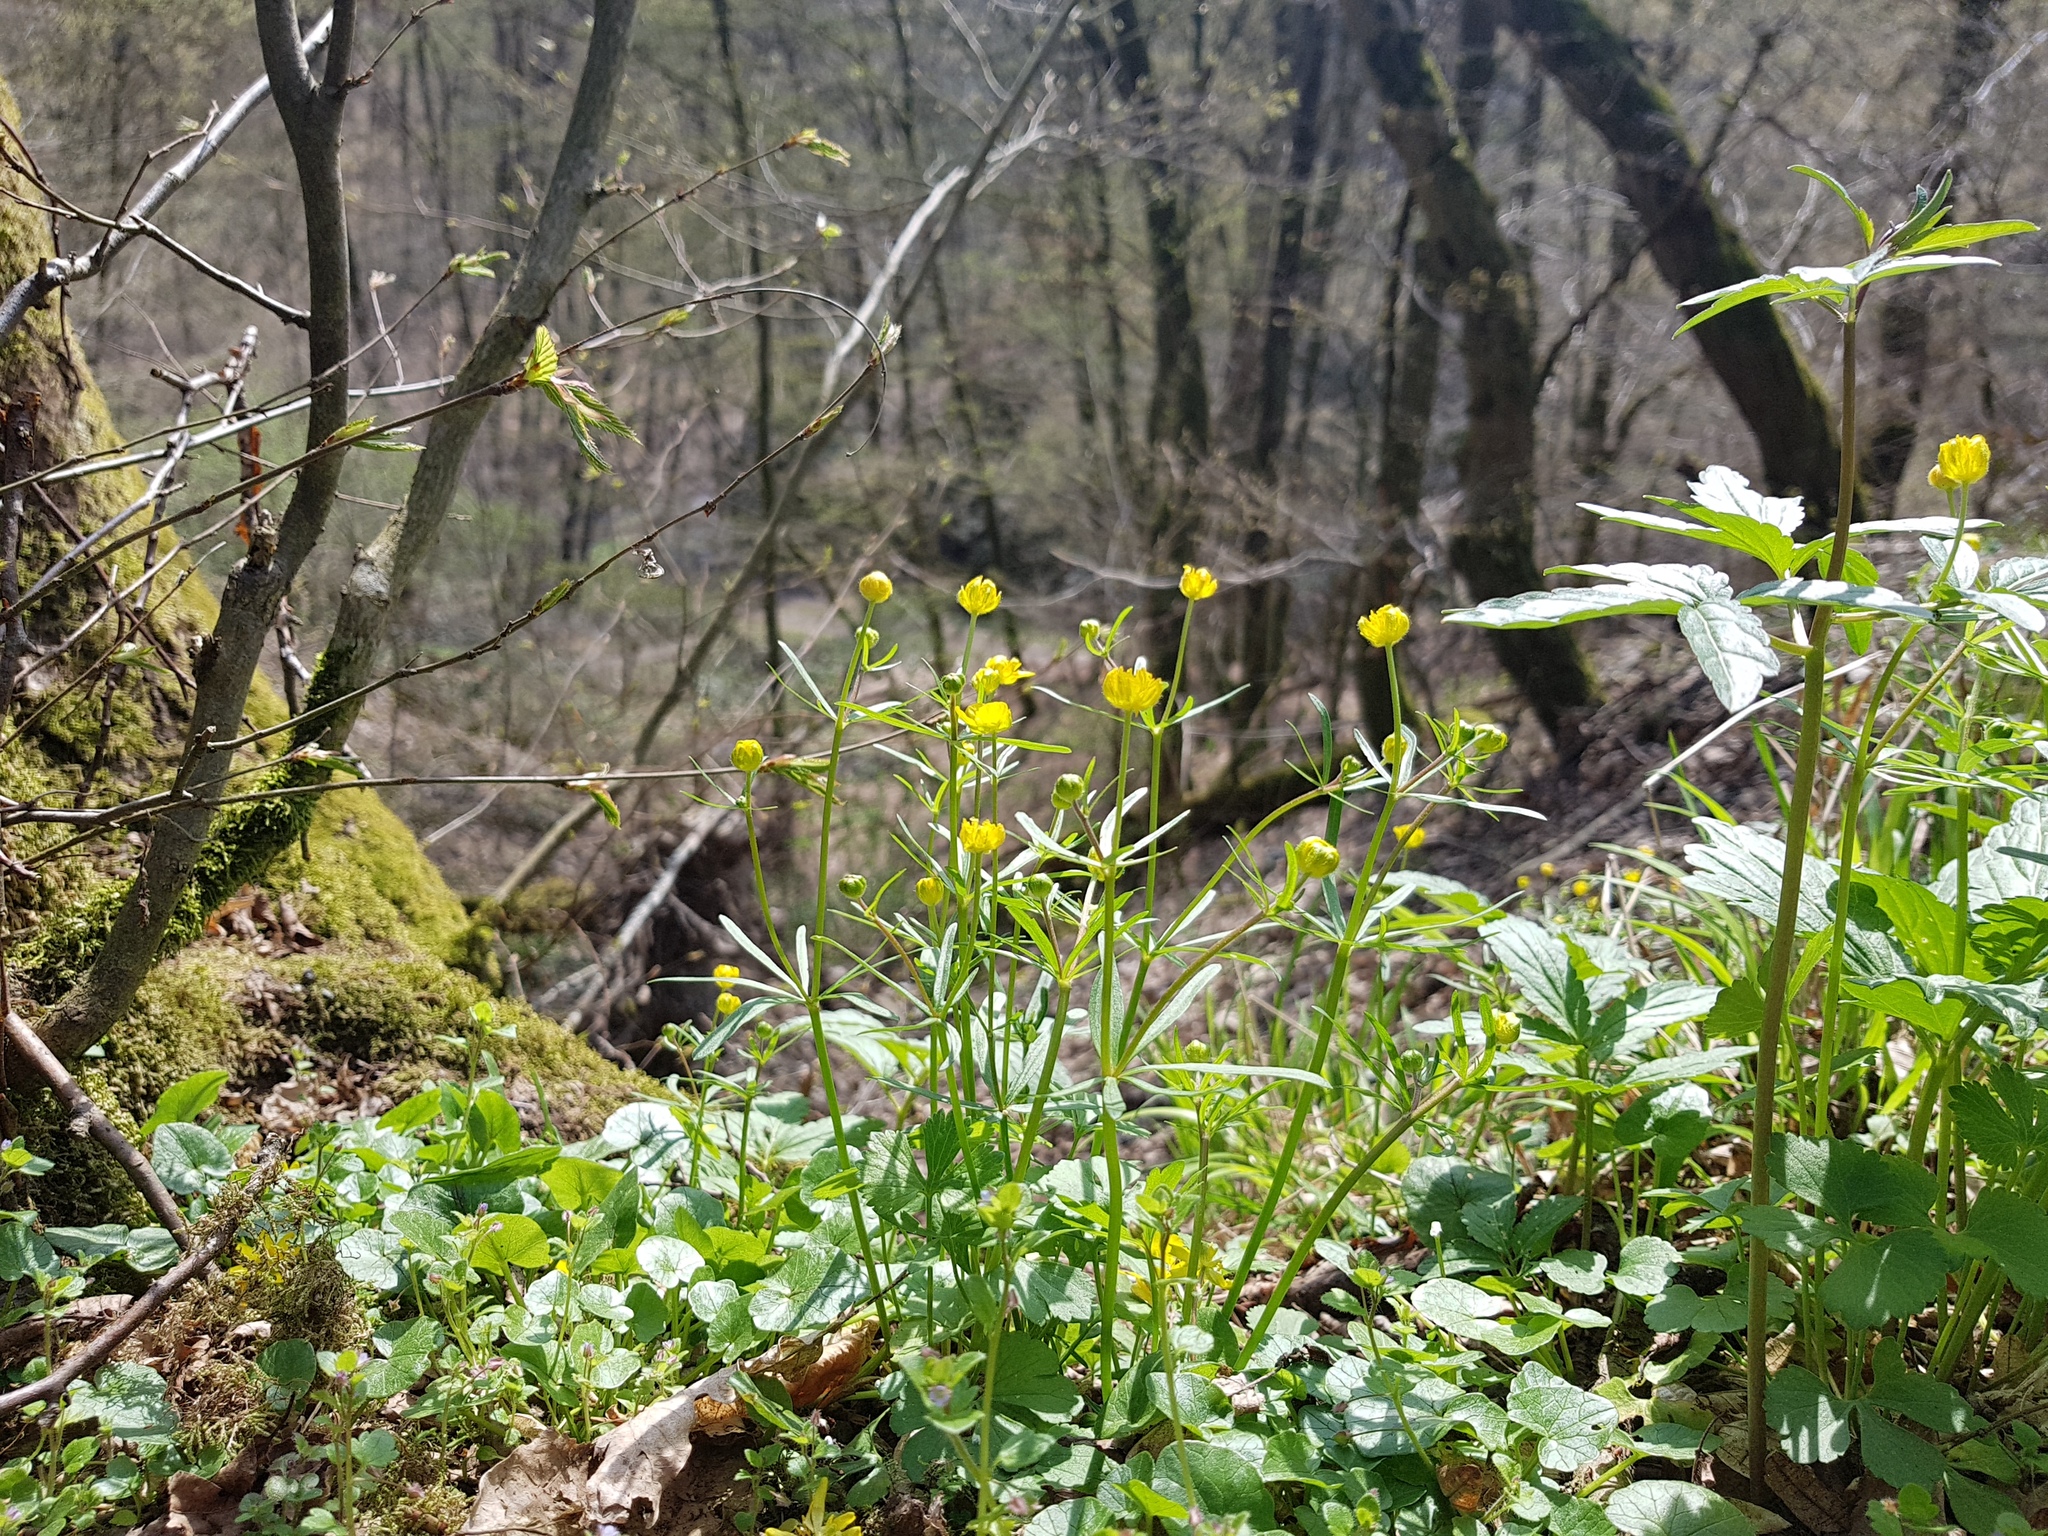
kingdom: Plantae
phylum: Tracheophyta
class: Magnoliopsida
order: Ranunculales
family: Ranunculaceae
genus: Ranunculus
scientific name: Ranunculus auricomus
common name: Goldilocks buttercup
